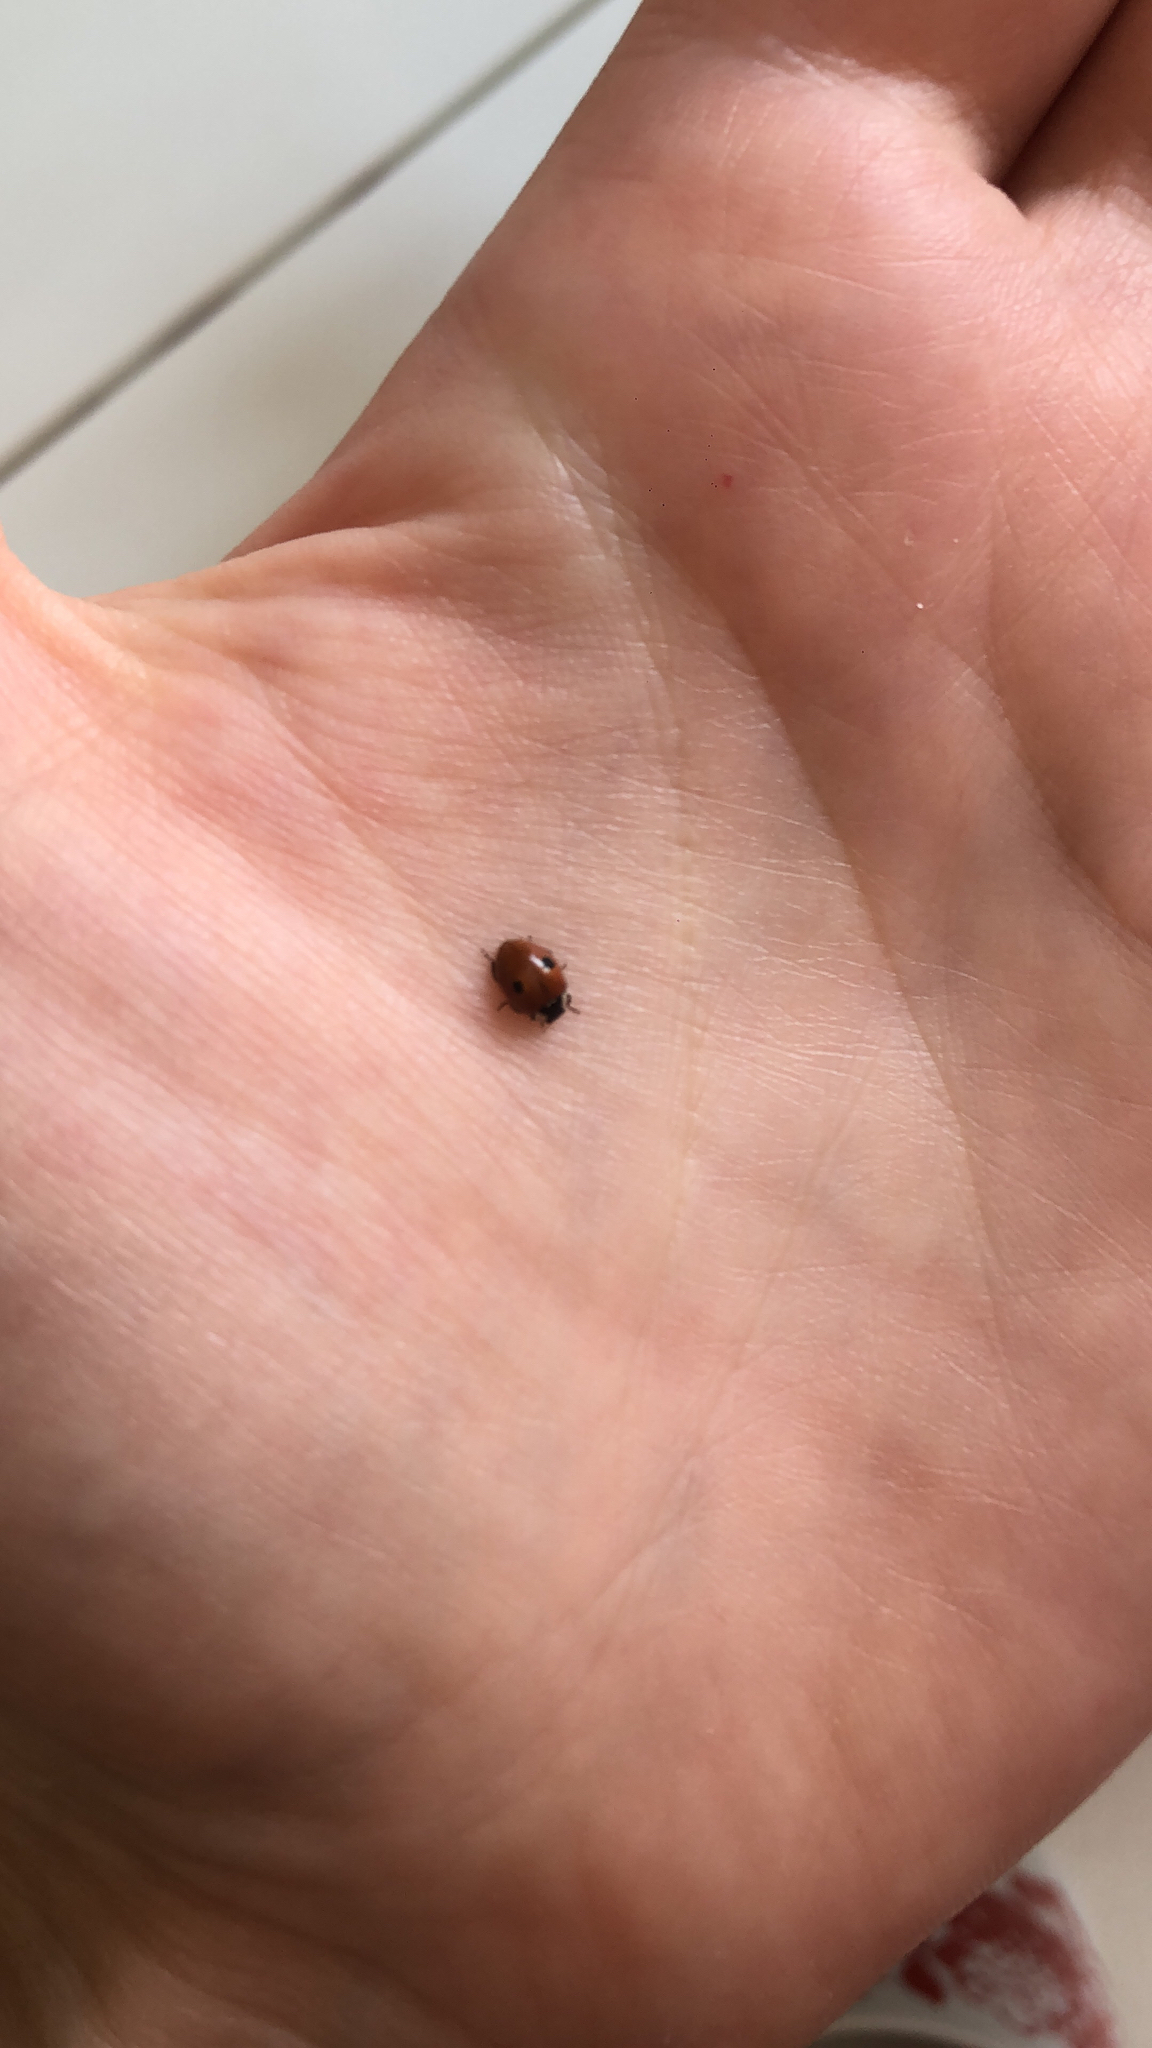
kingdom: Animalia
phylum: Arthropoda
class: Insecta
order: Coleoptera
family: Coccinellidae
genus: Adalia
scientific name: Adalia bipunctata
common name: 2-spot ladybird
